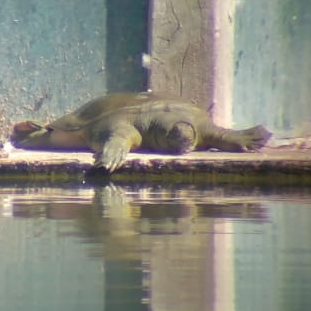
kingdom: Animalia
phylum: Chordata
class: Testudines
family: Trionychidae
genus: Pelodiscus
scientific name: Pelodiscus sinensis
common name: Chinese softshell turtle
